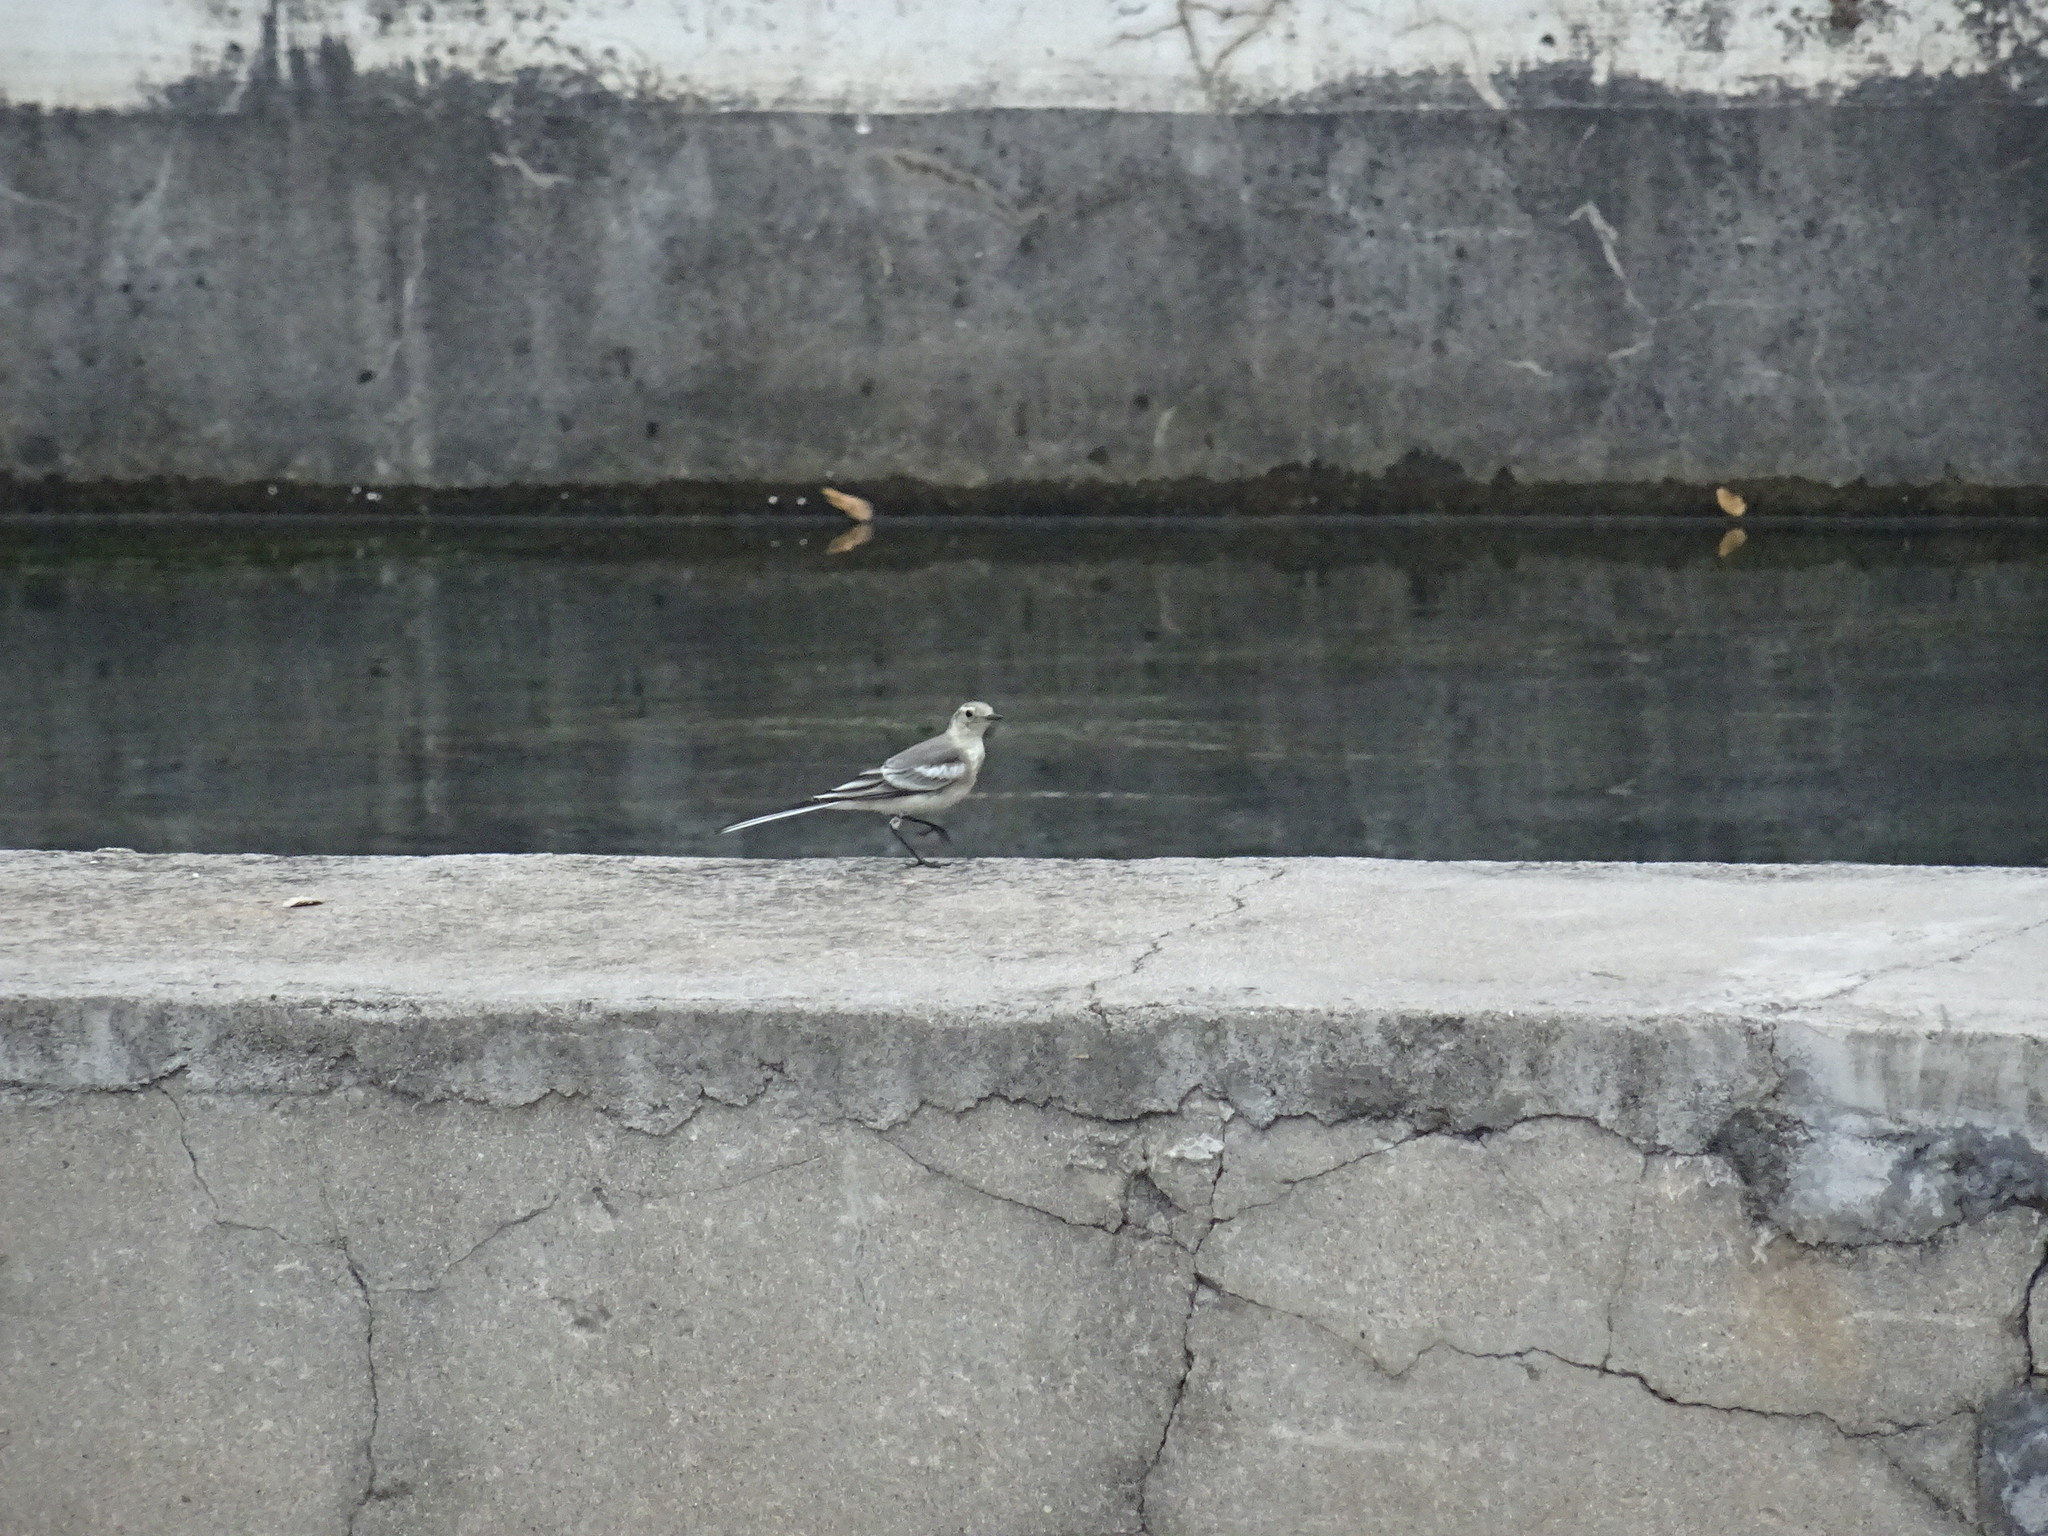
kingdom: Animalia
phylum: Chordata
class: Aves
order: Passeriformes
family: Motacillidae
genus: Motacilla
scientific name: Motacilla alba
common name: White wagtail
